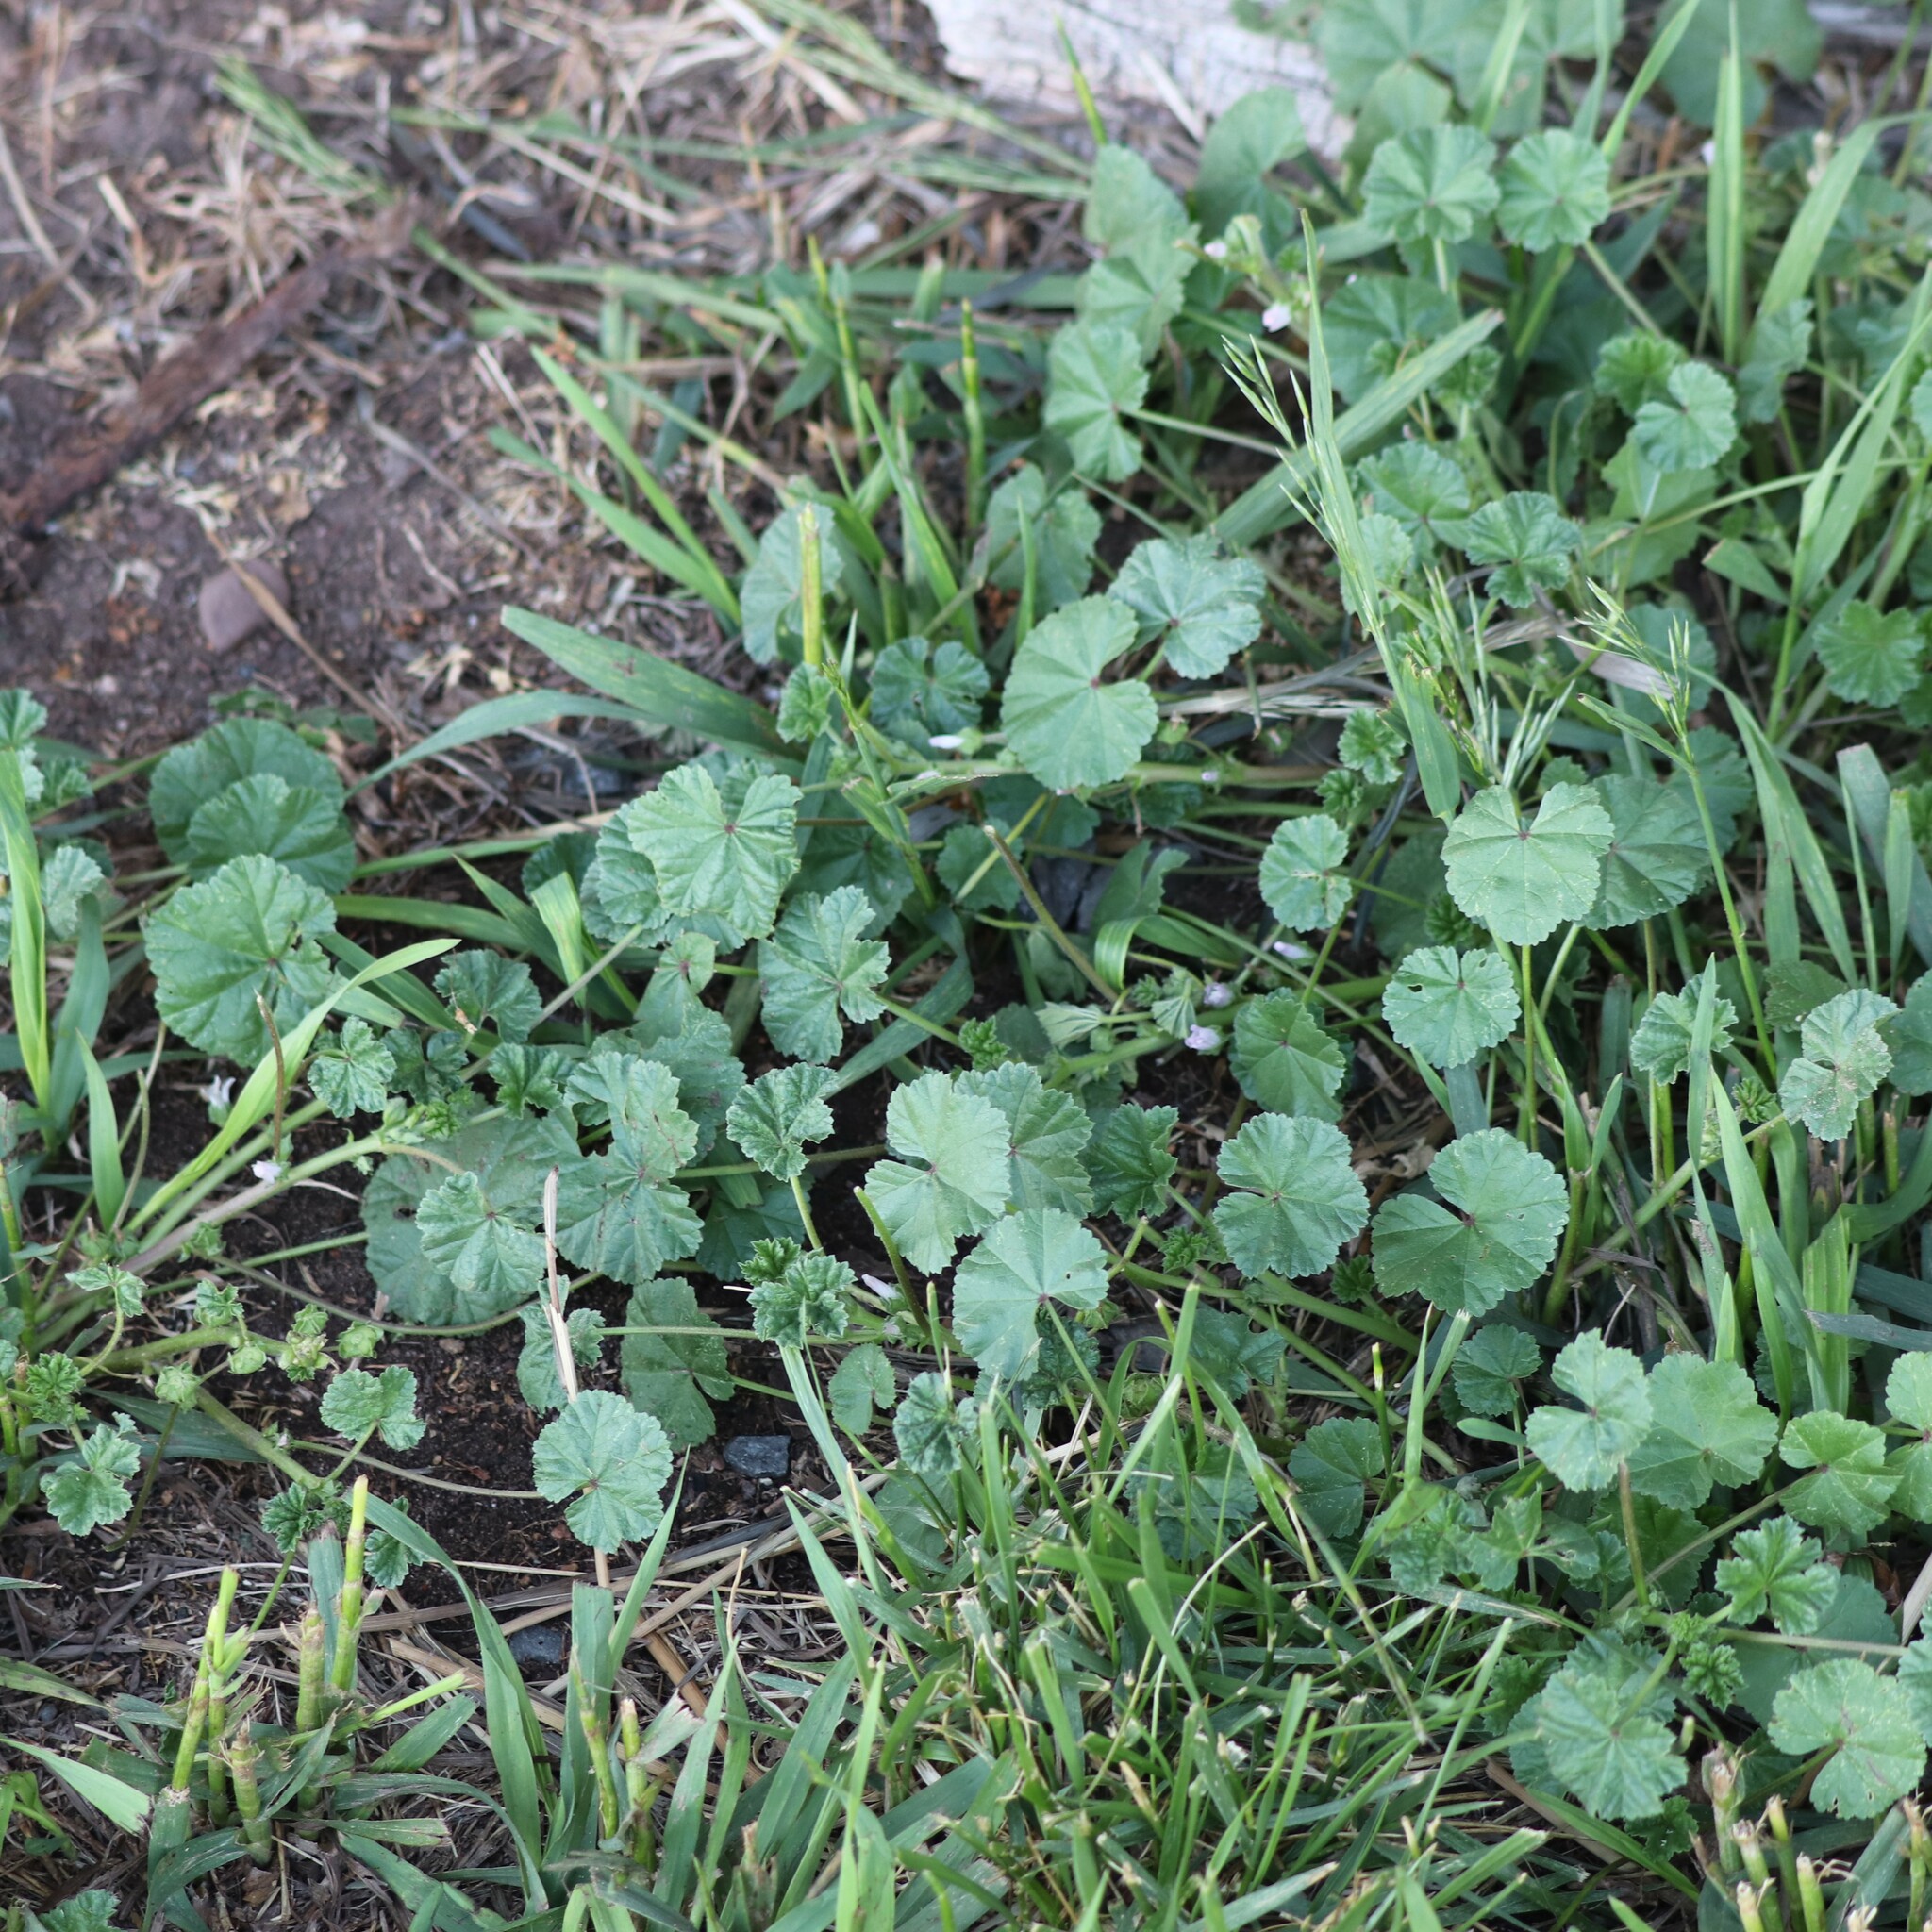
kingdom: Plantae
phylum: Tracheophyta
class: Magnoliopsida
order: Malvales
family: Malvaceae
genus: Malva
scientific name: Malva neglecta
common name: Common mallow
